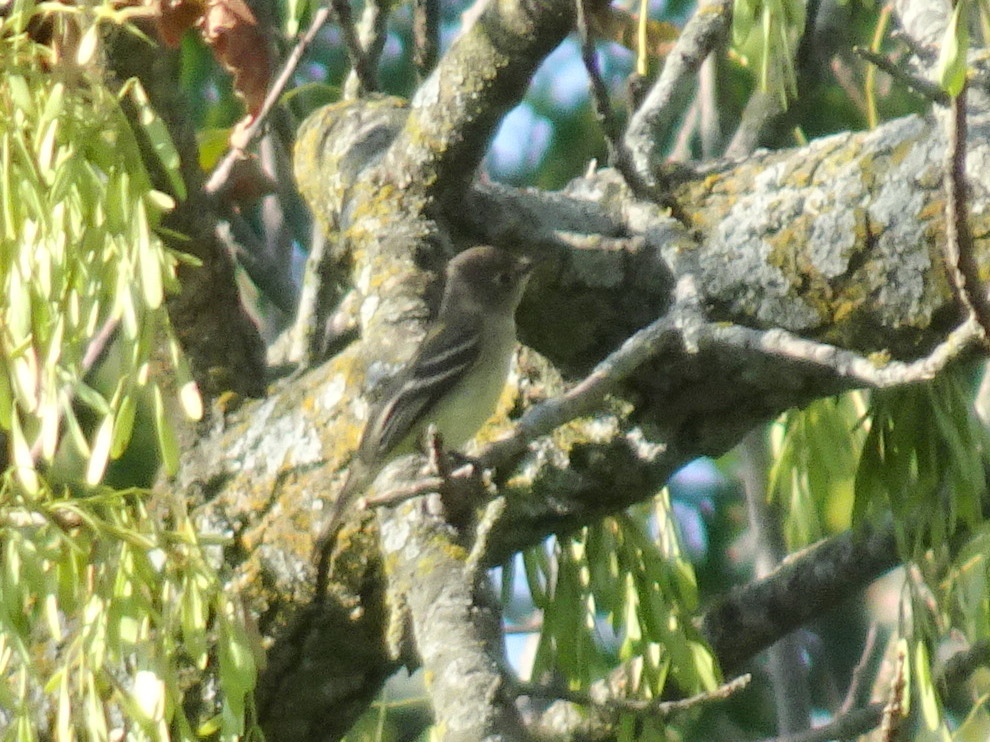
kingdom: Animalia
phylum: Chordata
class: Aves
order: Passeriformes
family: Tyrannidae
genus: Empidonax
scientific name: Empidonax minimus
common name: Least flycatcher
